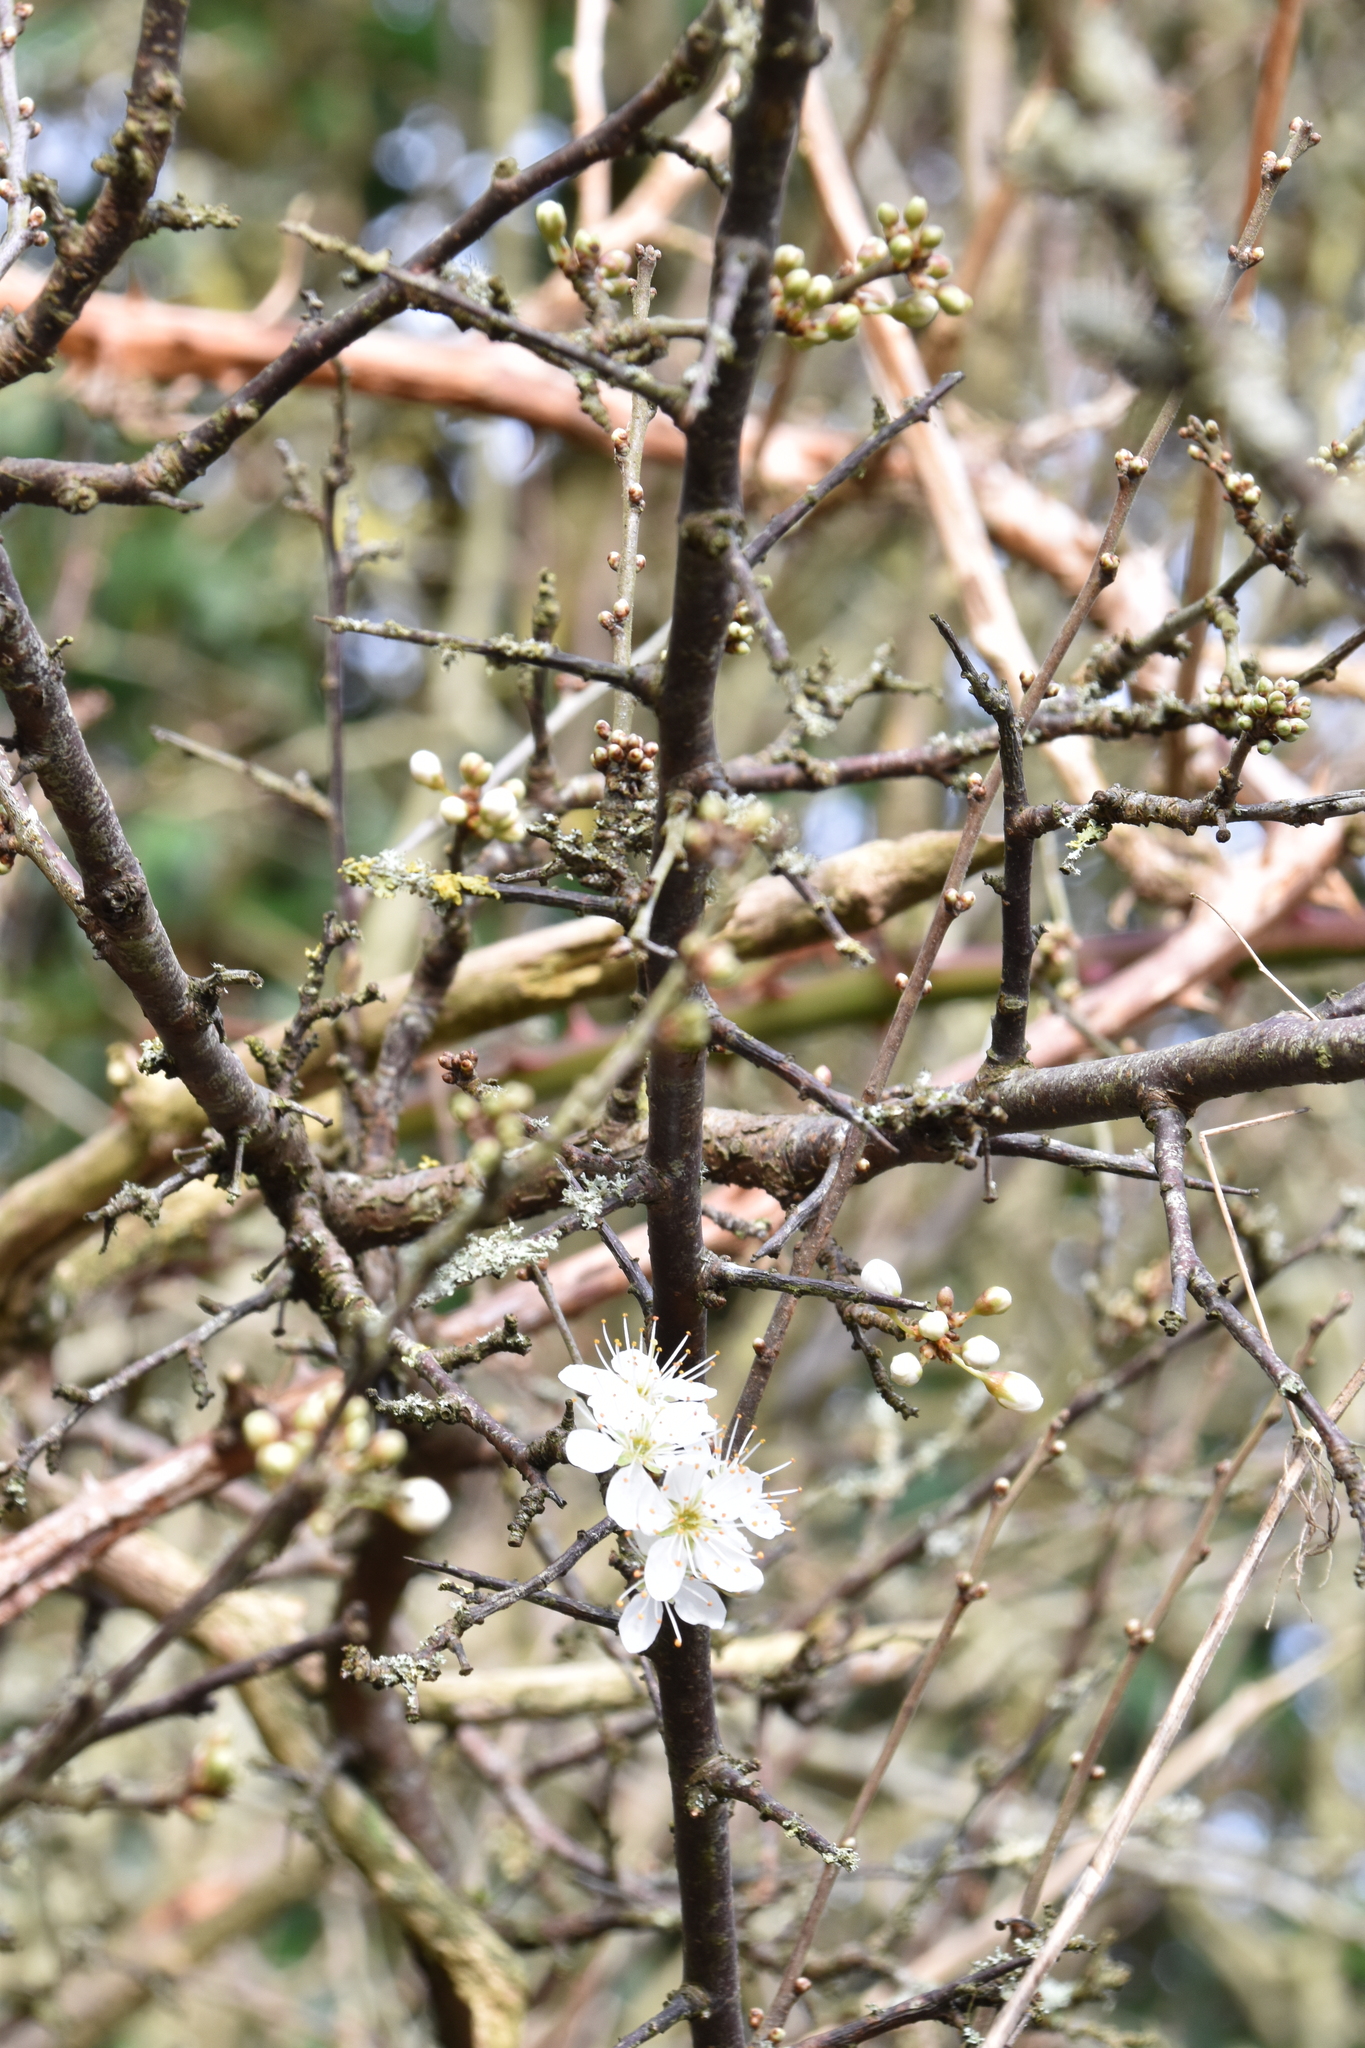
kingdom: Plantae
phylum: Tracheophyta
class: Magnoliopsida
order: Rosales
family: Rosaceae
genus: Prunus
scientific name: Prunus spinosa
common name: Blackthorn
